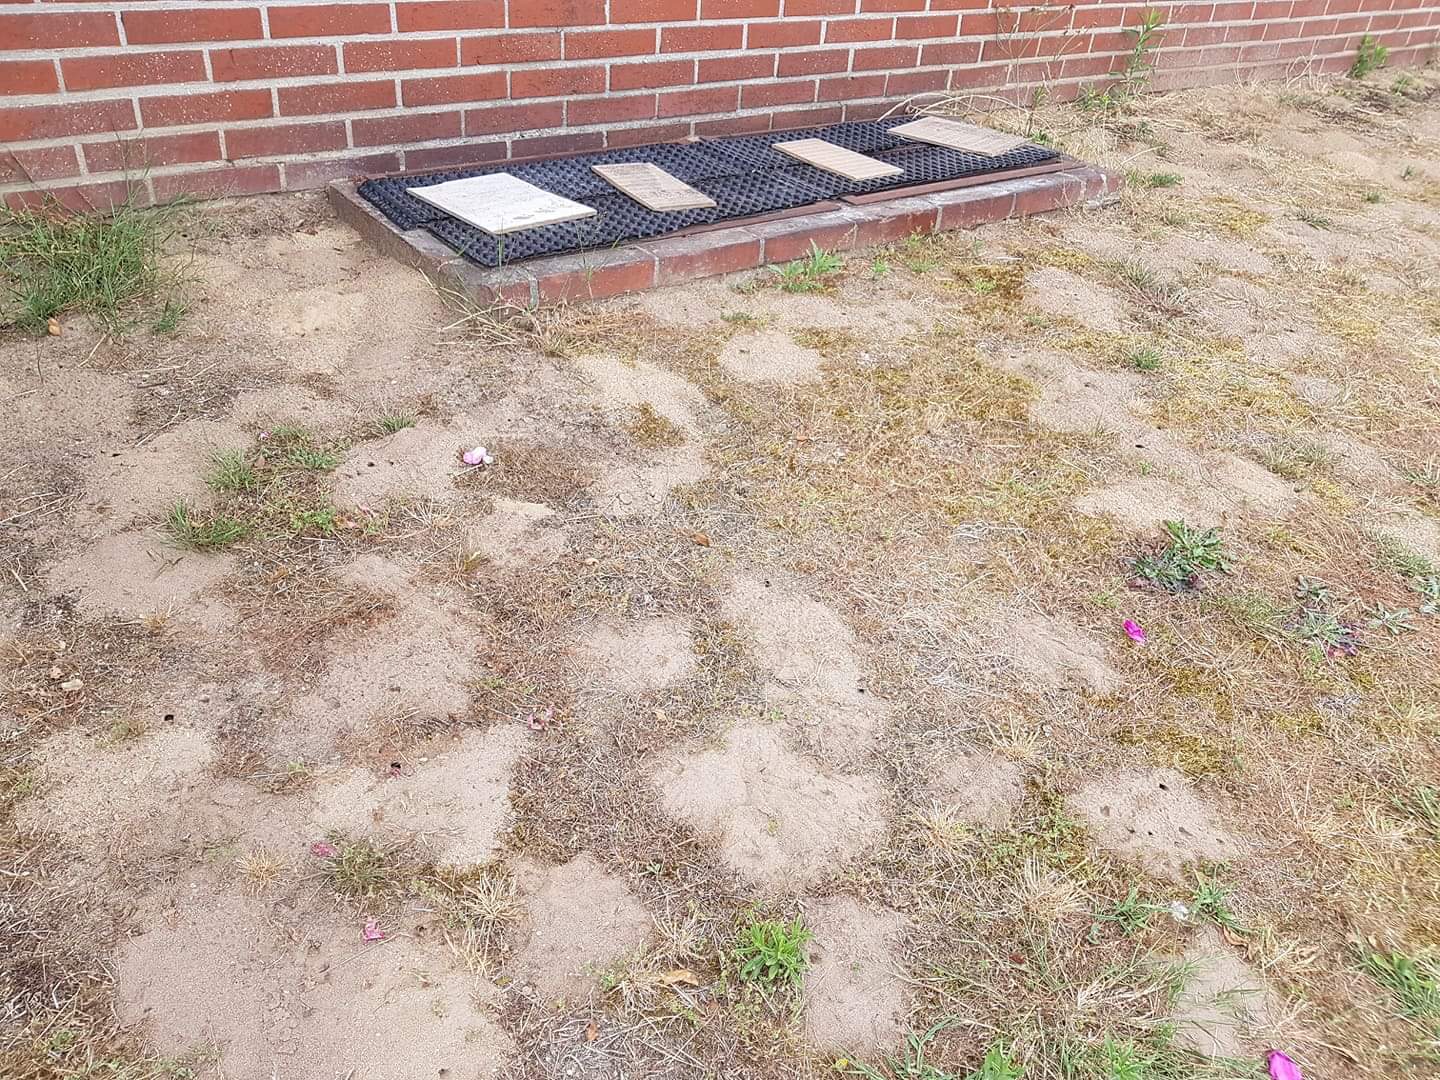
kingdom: Animalia
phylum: Arthropoda
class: Insecta
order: Hymenoptera
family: Crabronidae
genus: Philanthus
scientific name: Philanthus triangulum
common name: Bee wolf
